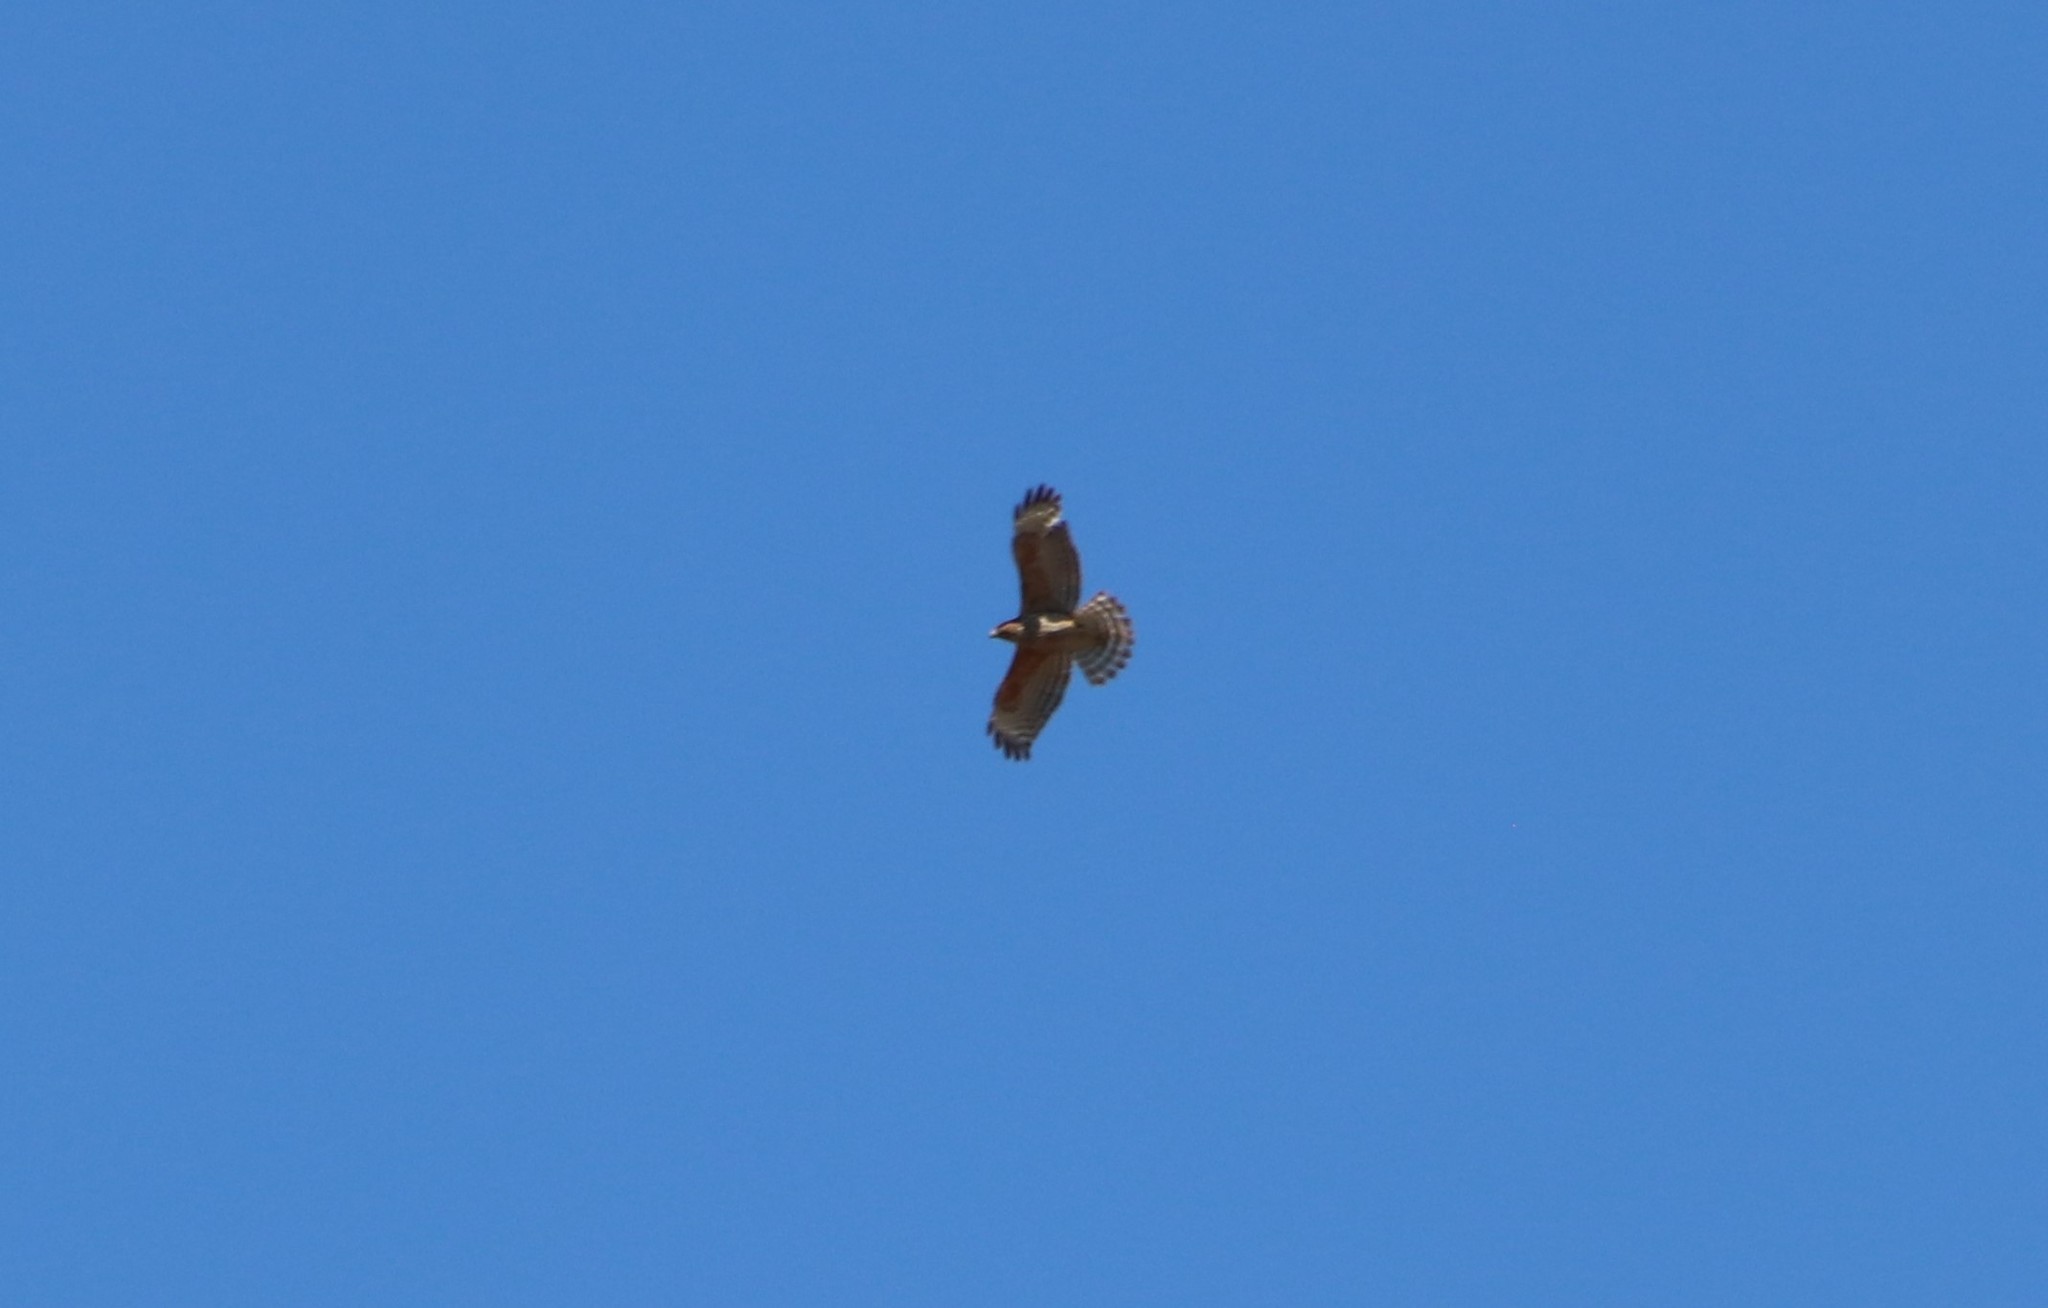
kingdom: Animalia
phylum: Chordata
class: Aves
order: Accipitriformes
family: Accipitridae
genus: Buteo
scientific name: Buteo lineatus
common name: Red-shouldered hawk
